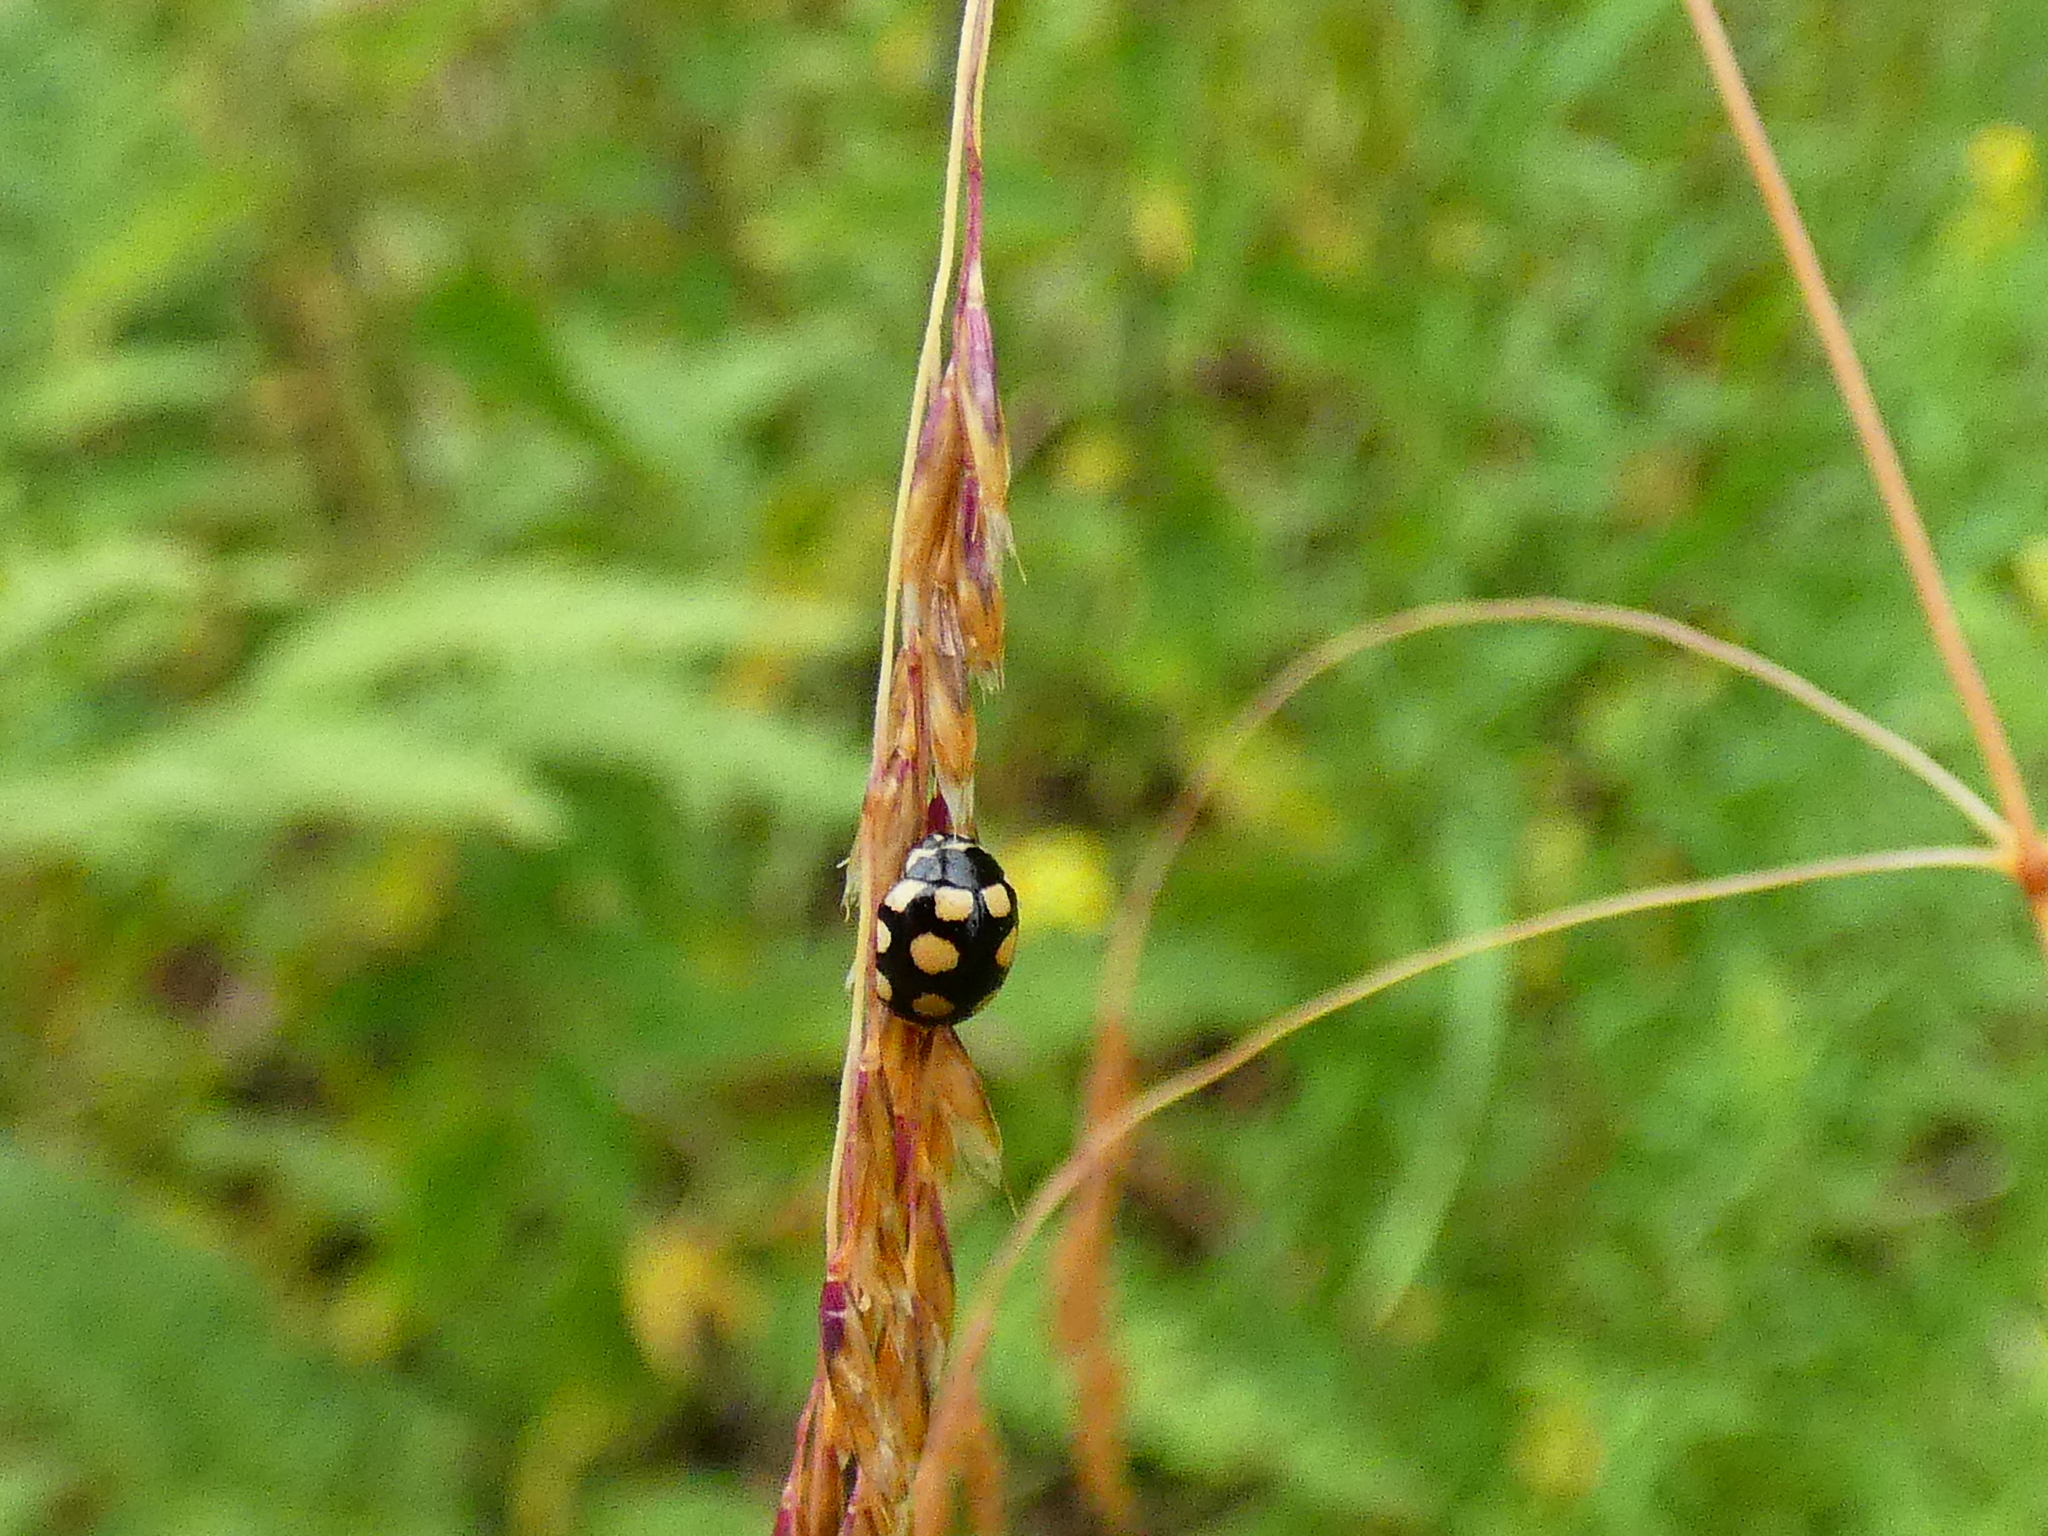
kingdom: Animalia
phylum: Arthropoda
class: Insecta
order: Coleoptera
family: Coccinellidae
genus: Coccinula
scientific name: Coccinula quatuordecimpustulata
